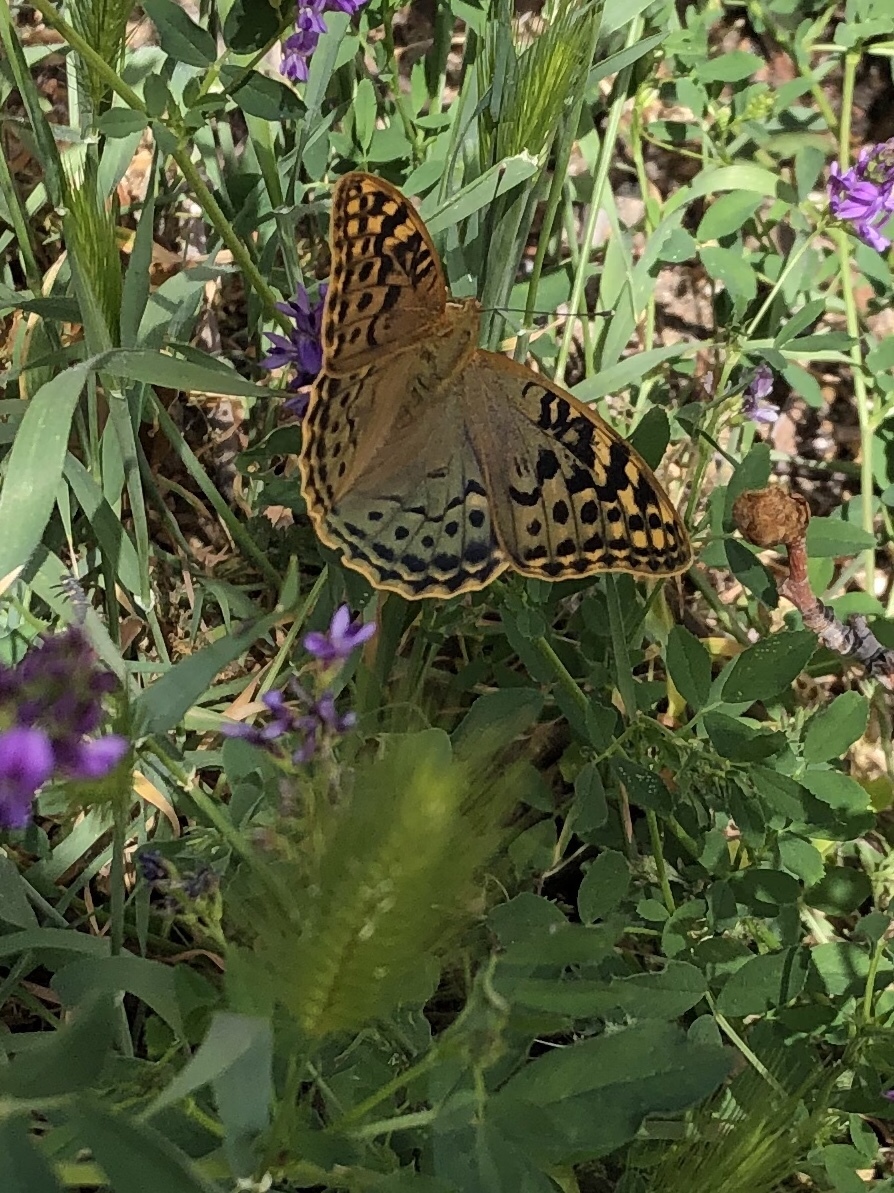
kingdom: Animalia
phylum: Arthropoda
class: Insecta
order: Lepidoptera
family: Nymphalidae
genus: Damora
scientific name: Damora pandora
